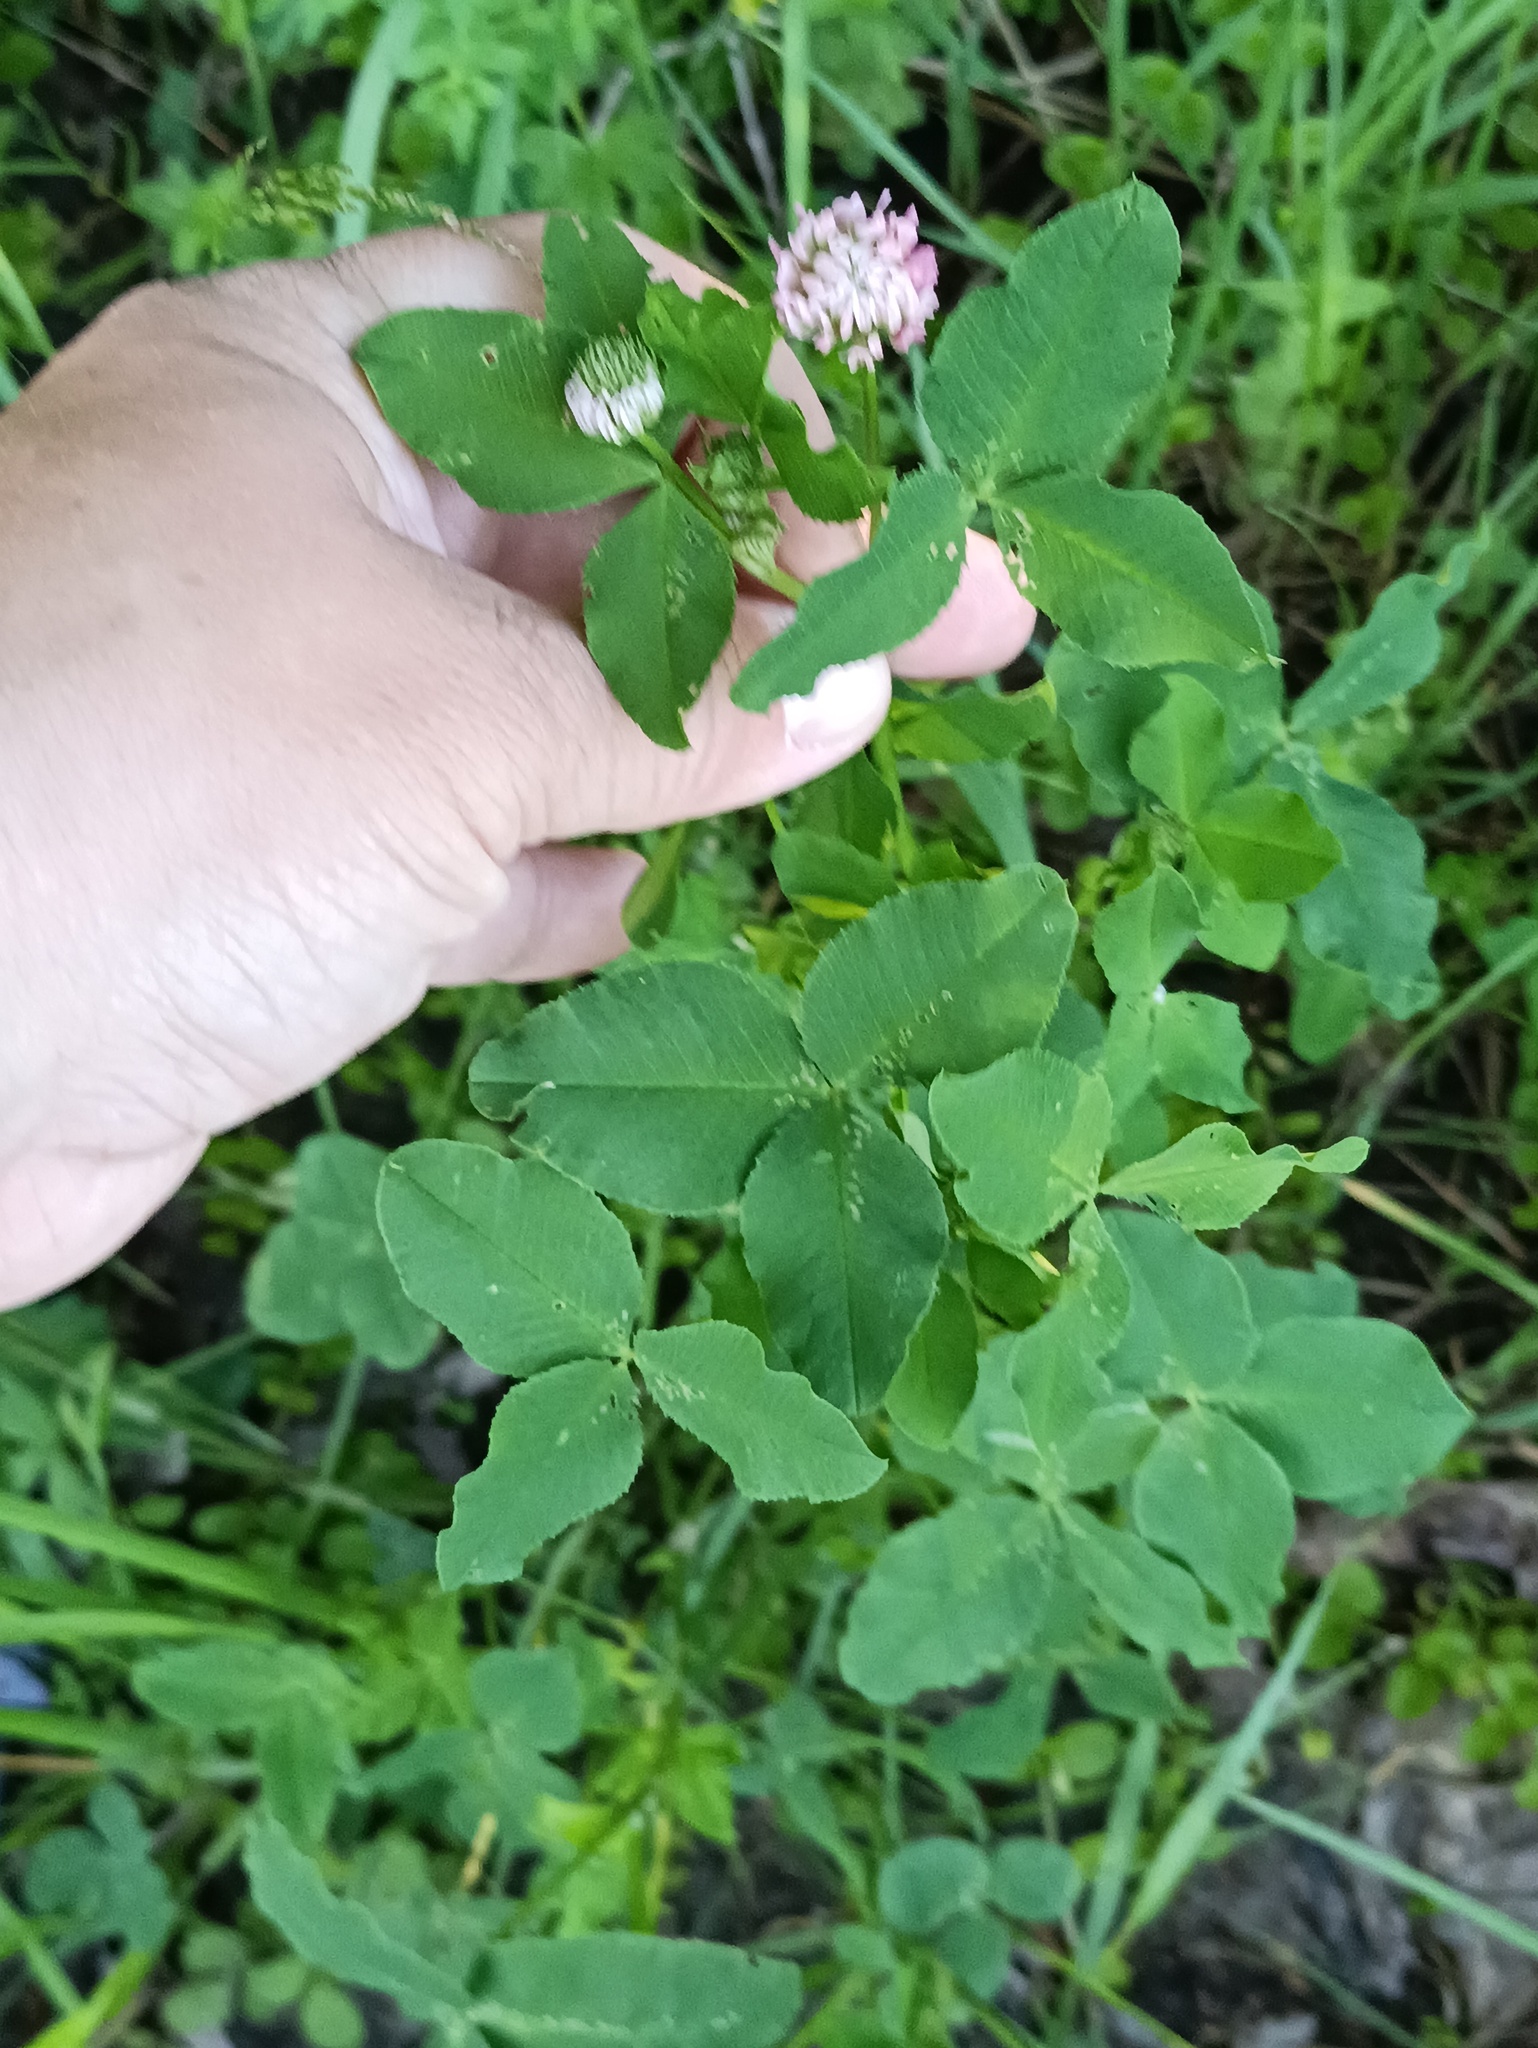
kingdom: Plantae
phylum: Tracheophyta
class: Magnoliopsida
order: Fabales
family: Fabaceae
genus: Trifolium
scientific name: Trifolium hybridum
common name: Alsike clover
